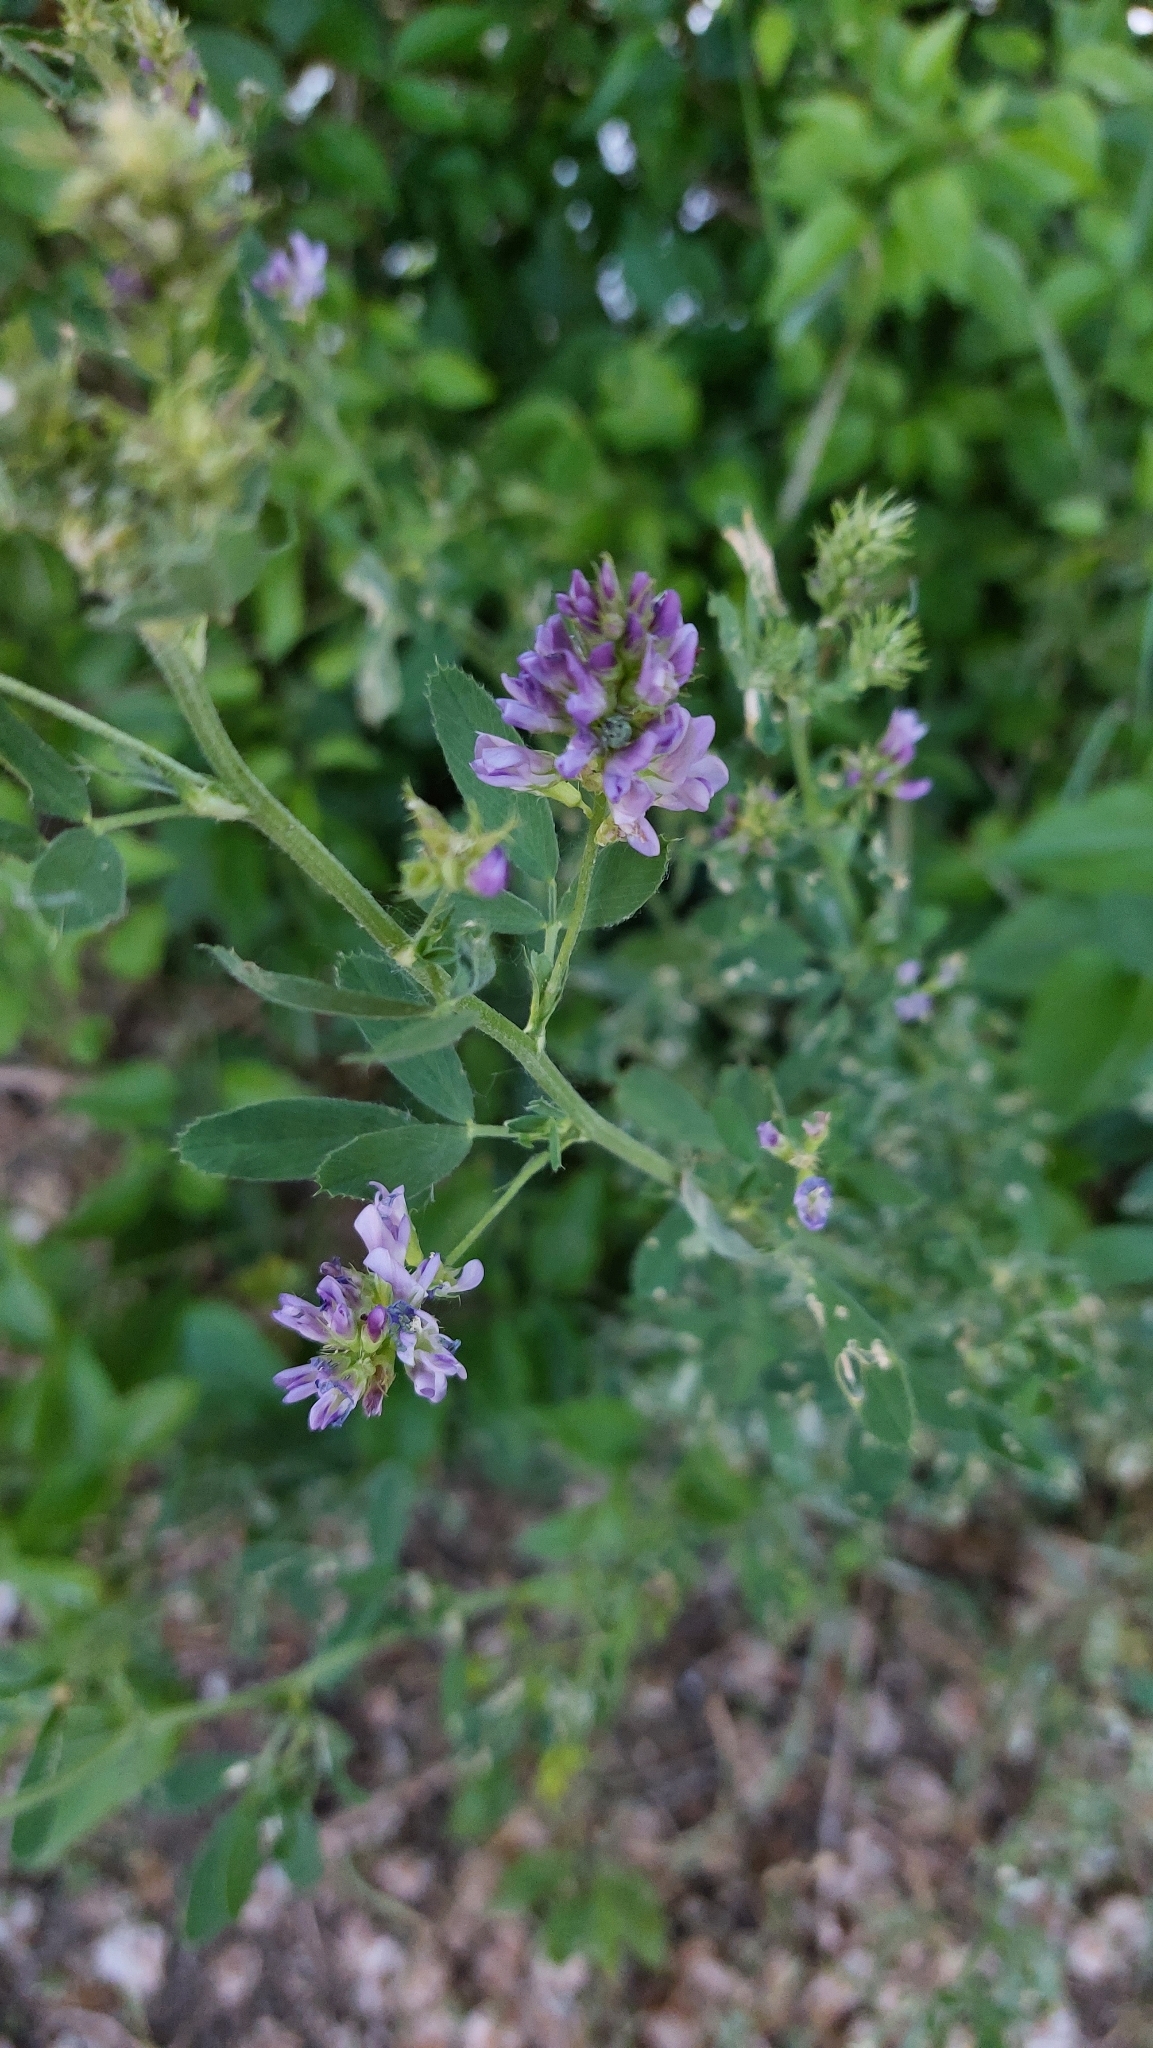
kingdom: Plantae
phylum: Tracheophyta
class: Magnoliopsida
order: Fabales
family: Fabaceae
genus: Medicago
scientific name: Medicago sativa
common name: Alfalfa
